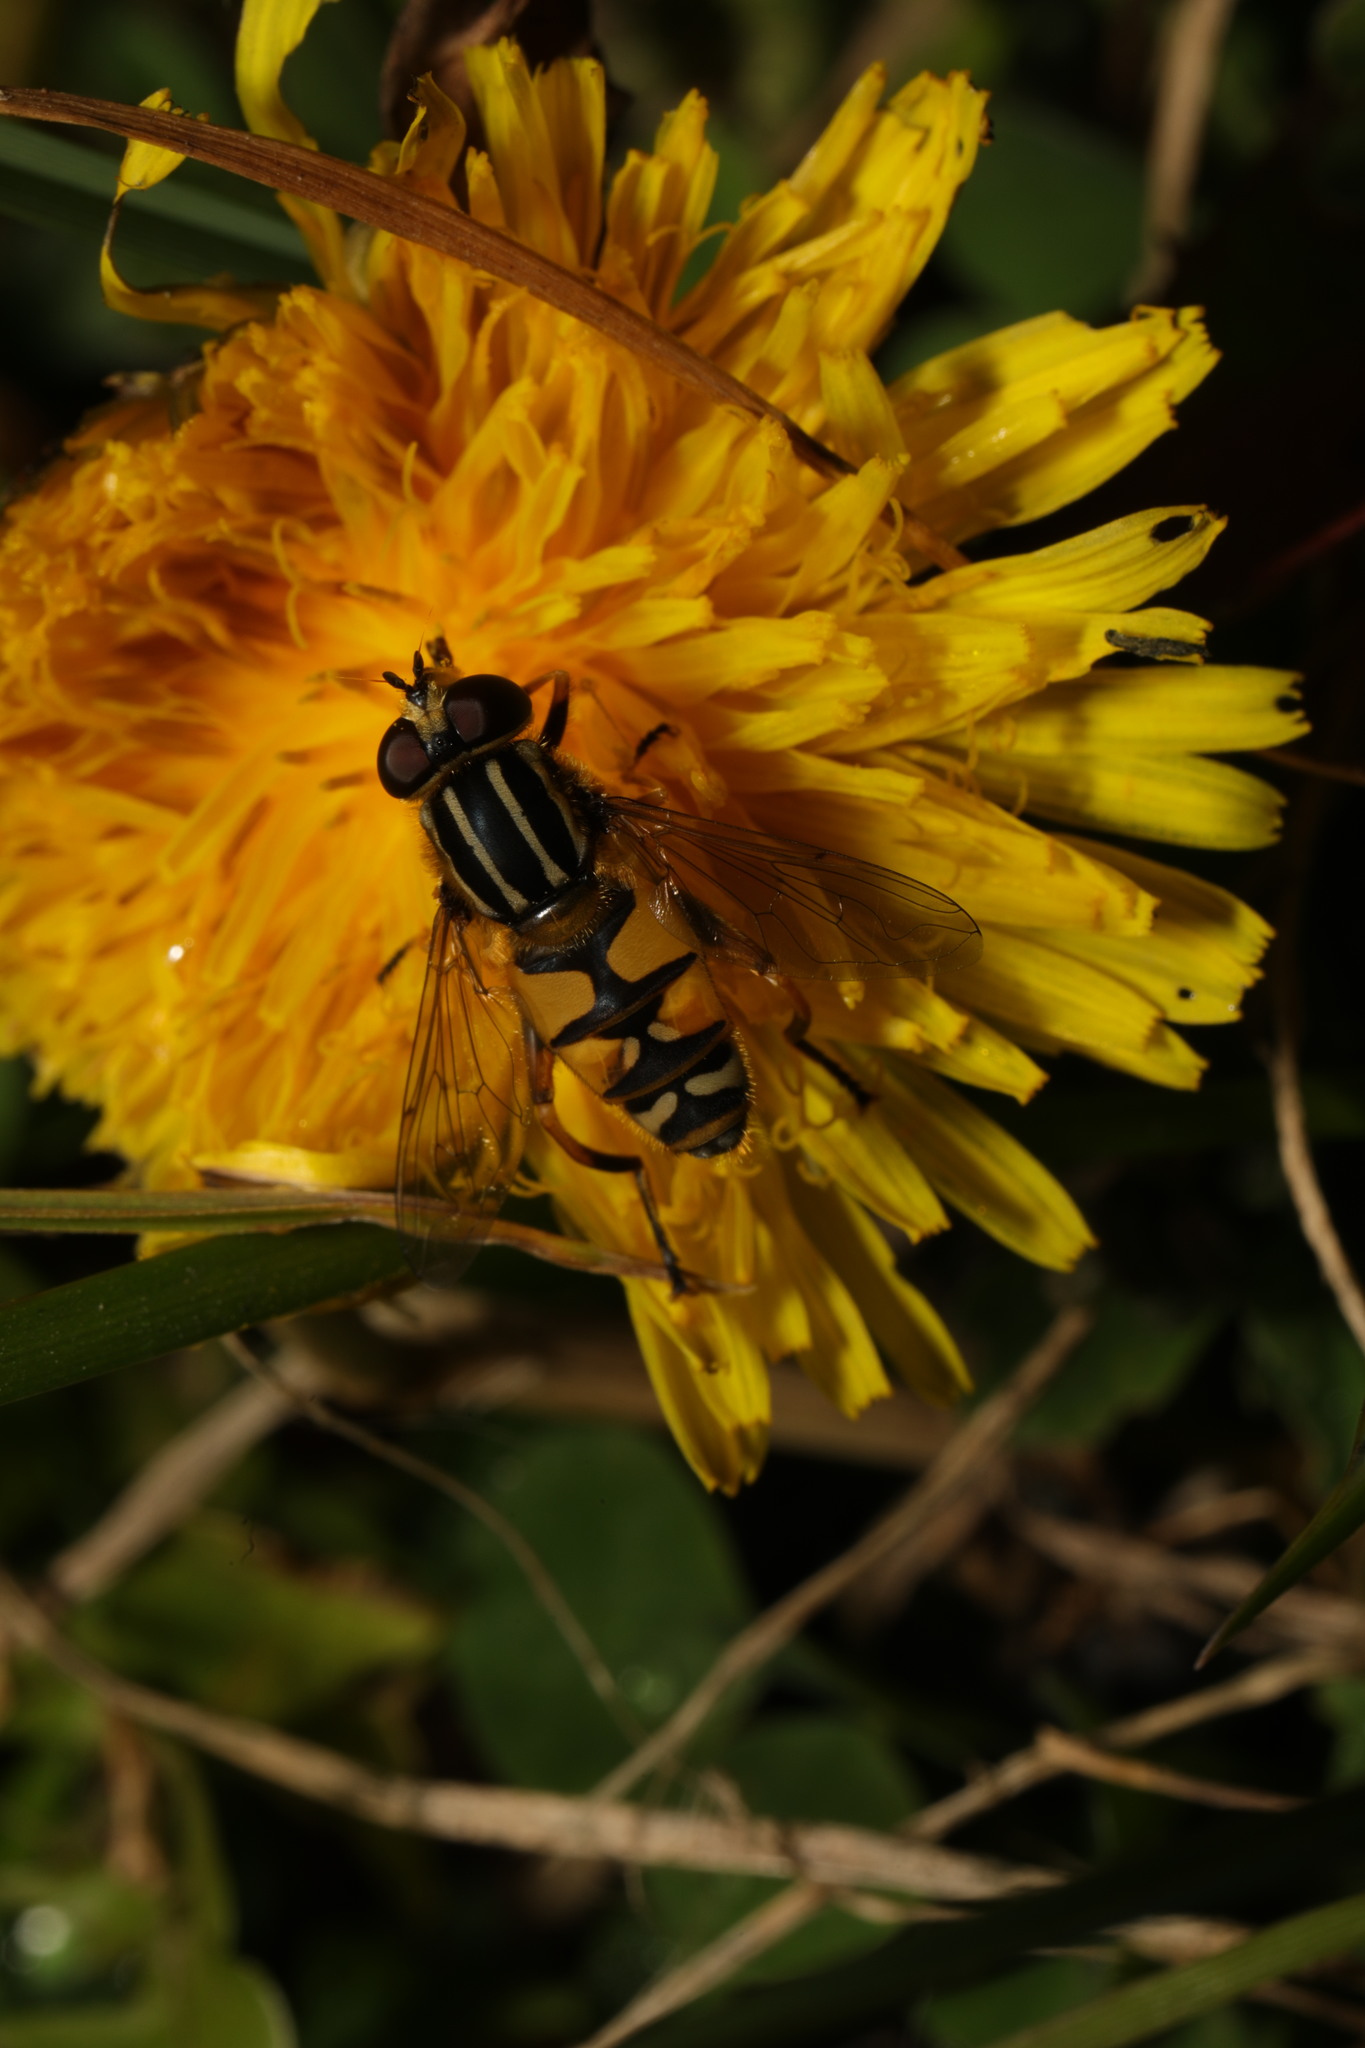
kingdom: Animalia
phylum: Arthropoda
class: Insecta
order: Diptera
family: Syrphidae
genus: Helophilus
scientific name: Helophilus pendulus
